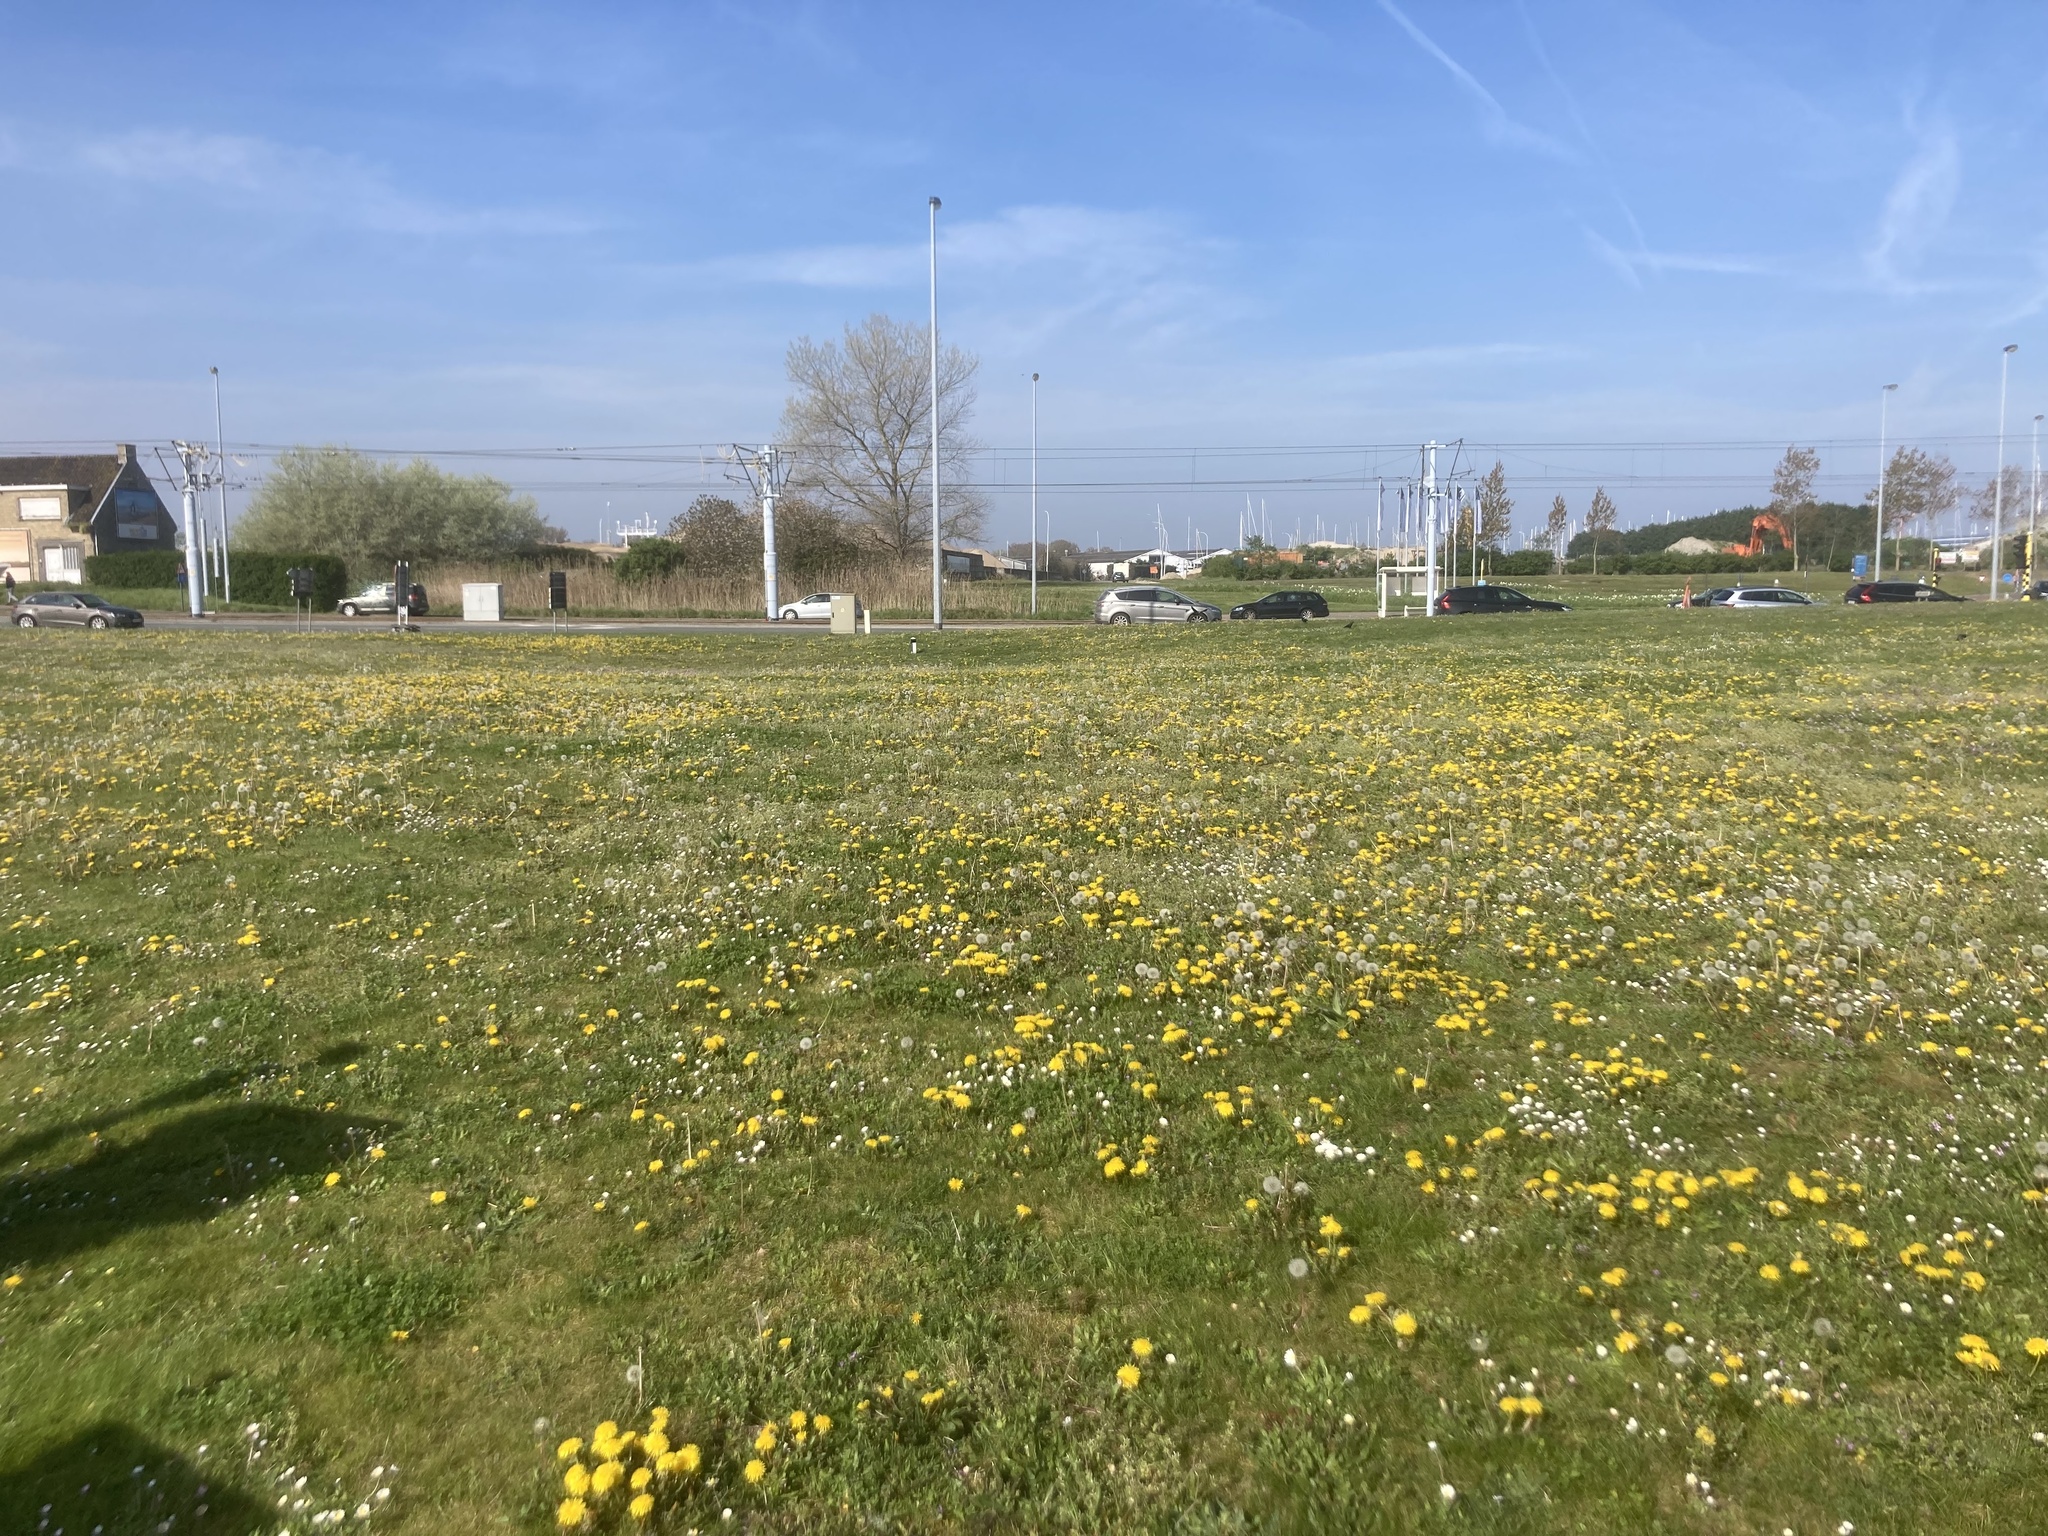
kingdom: Plantae
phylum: Tracheophyta
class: Magnoliopsida
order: Asterales
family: Asteraceae
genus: Taraxacum
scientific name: Taraxacum officinale
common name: Common dandelion
